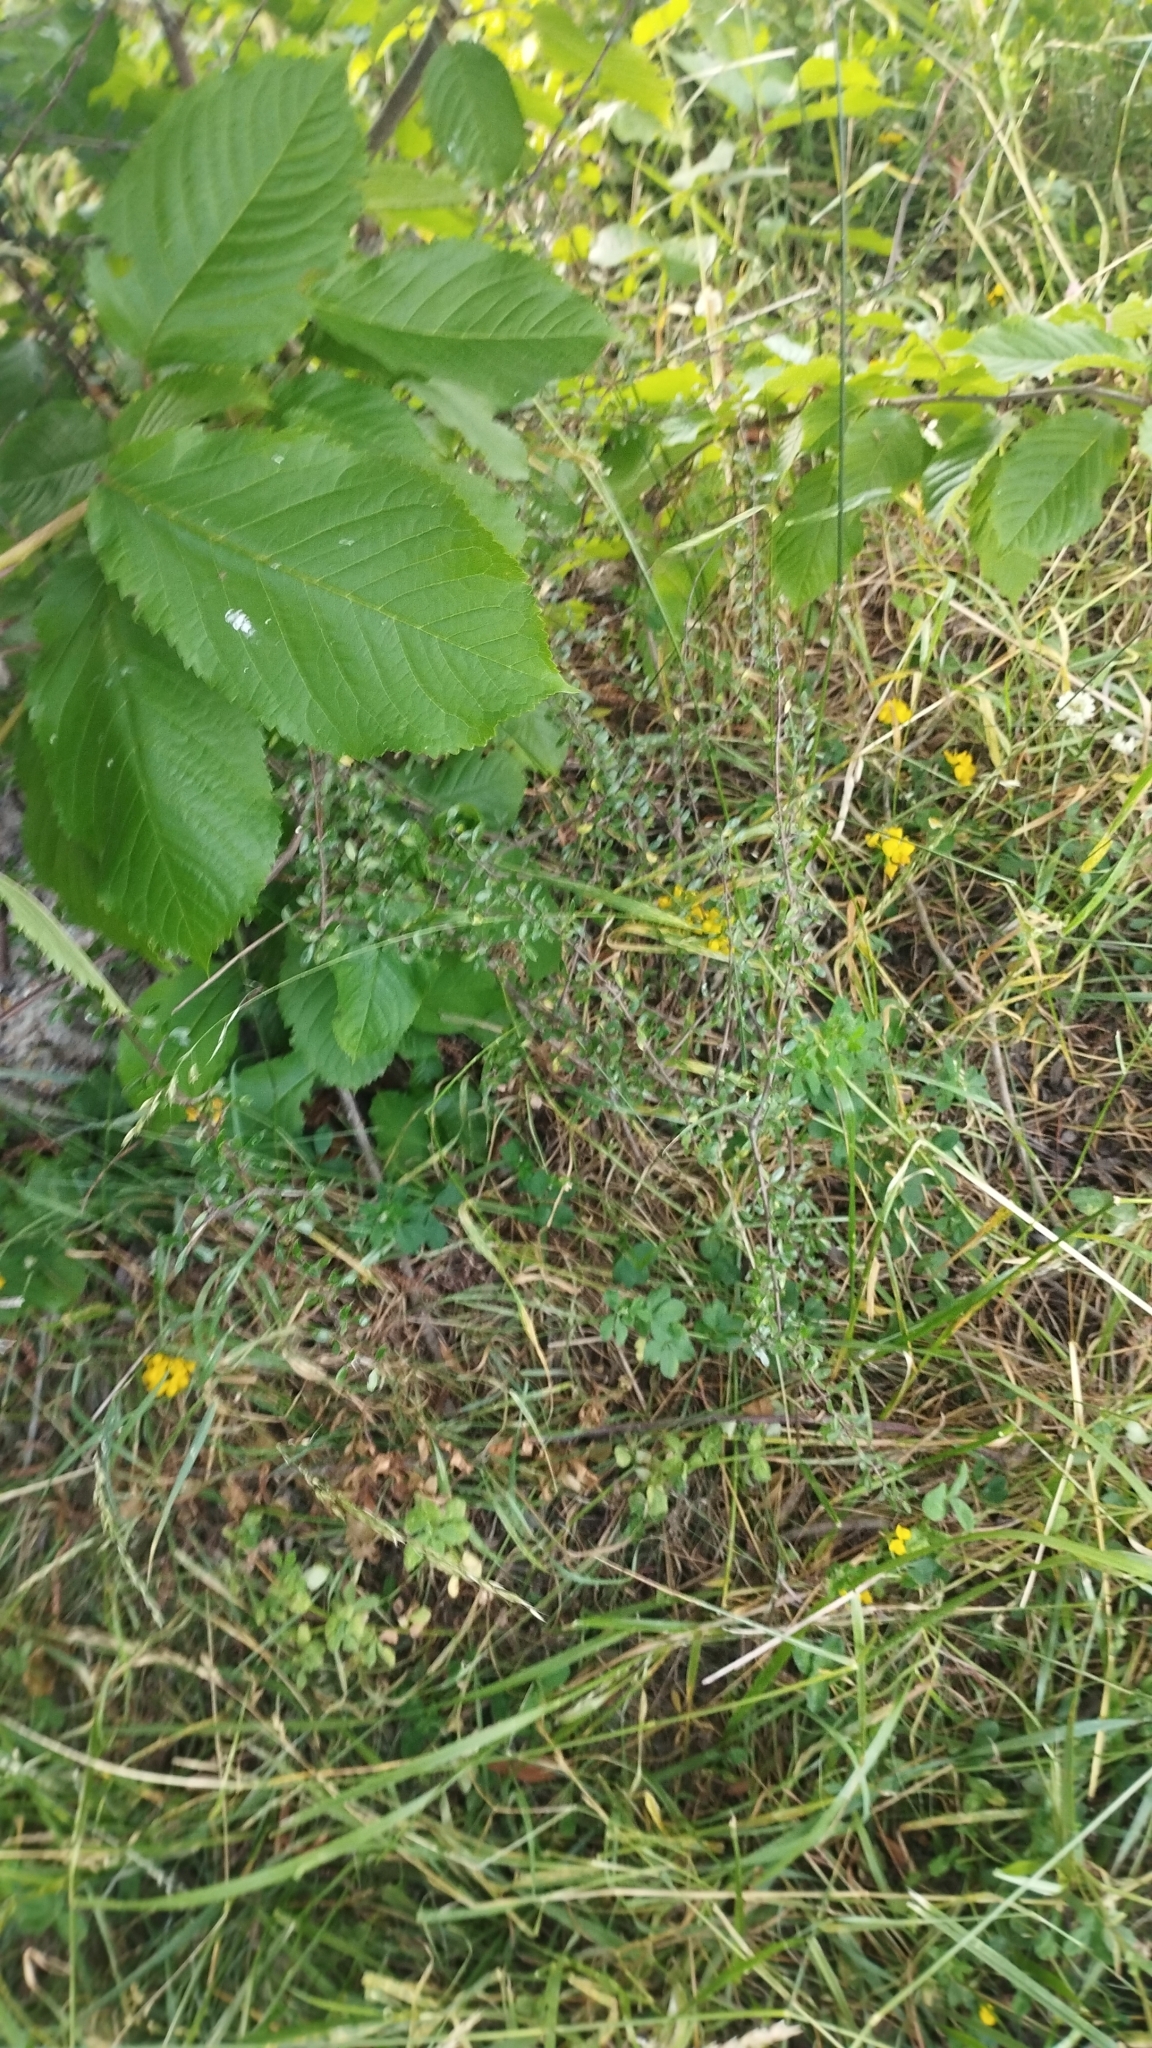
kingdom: Plantae
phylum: Tracheophyta
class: Magnoliopsida
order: Gentianales
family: Rubiaceae
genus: Coprosma
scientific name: Coprosma propinqua
